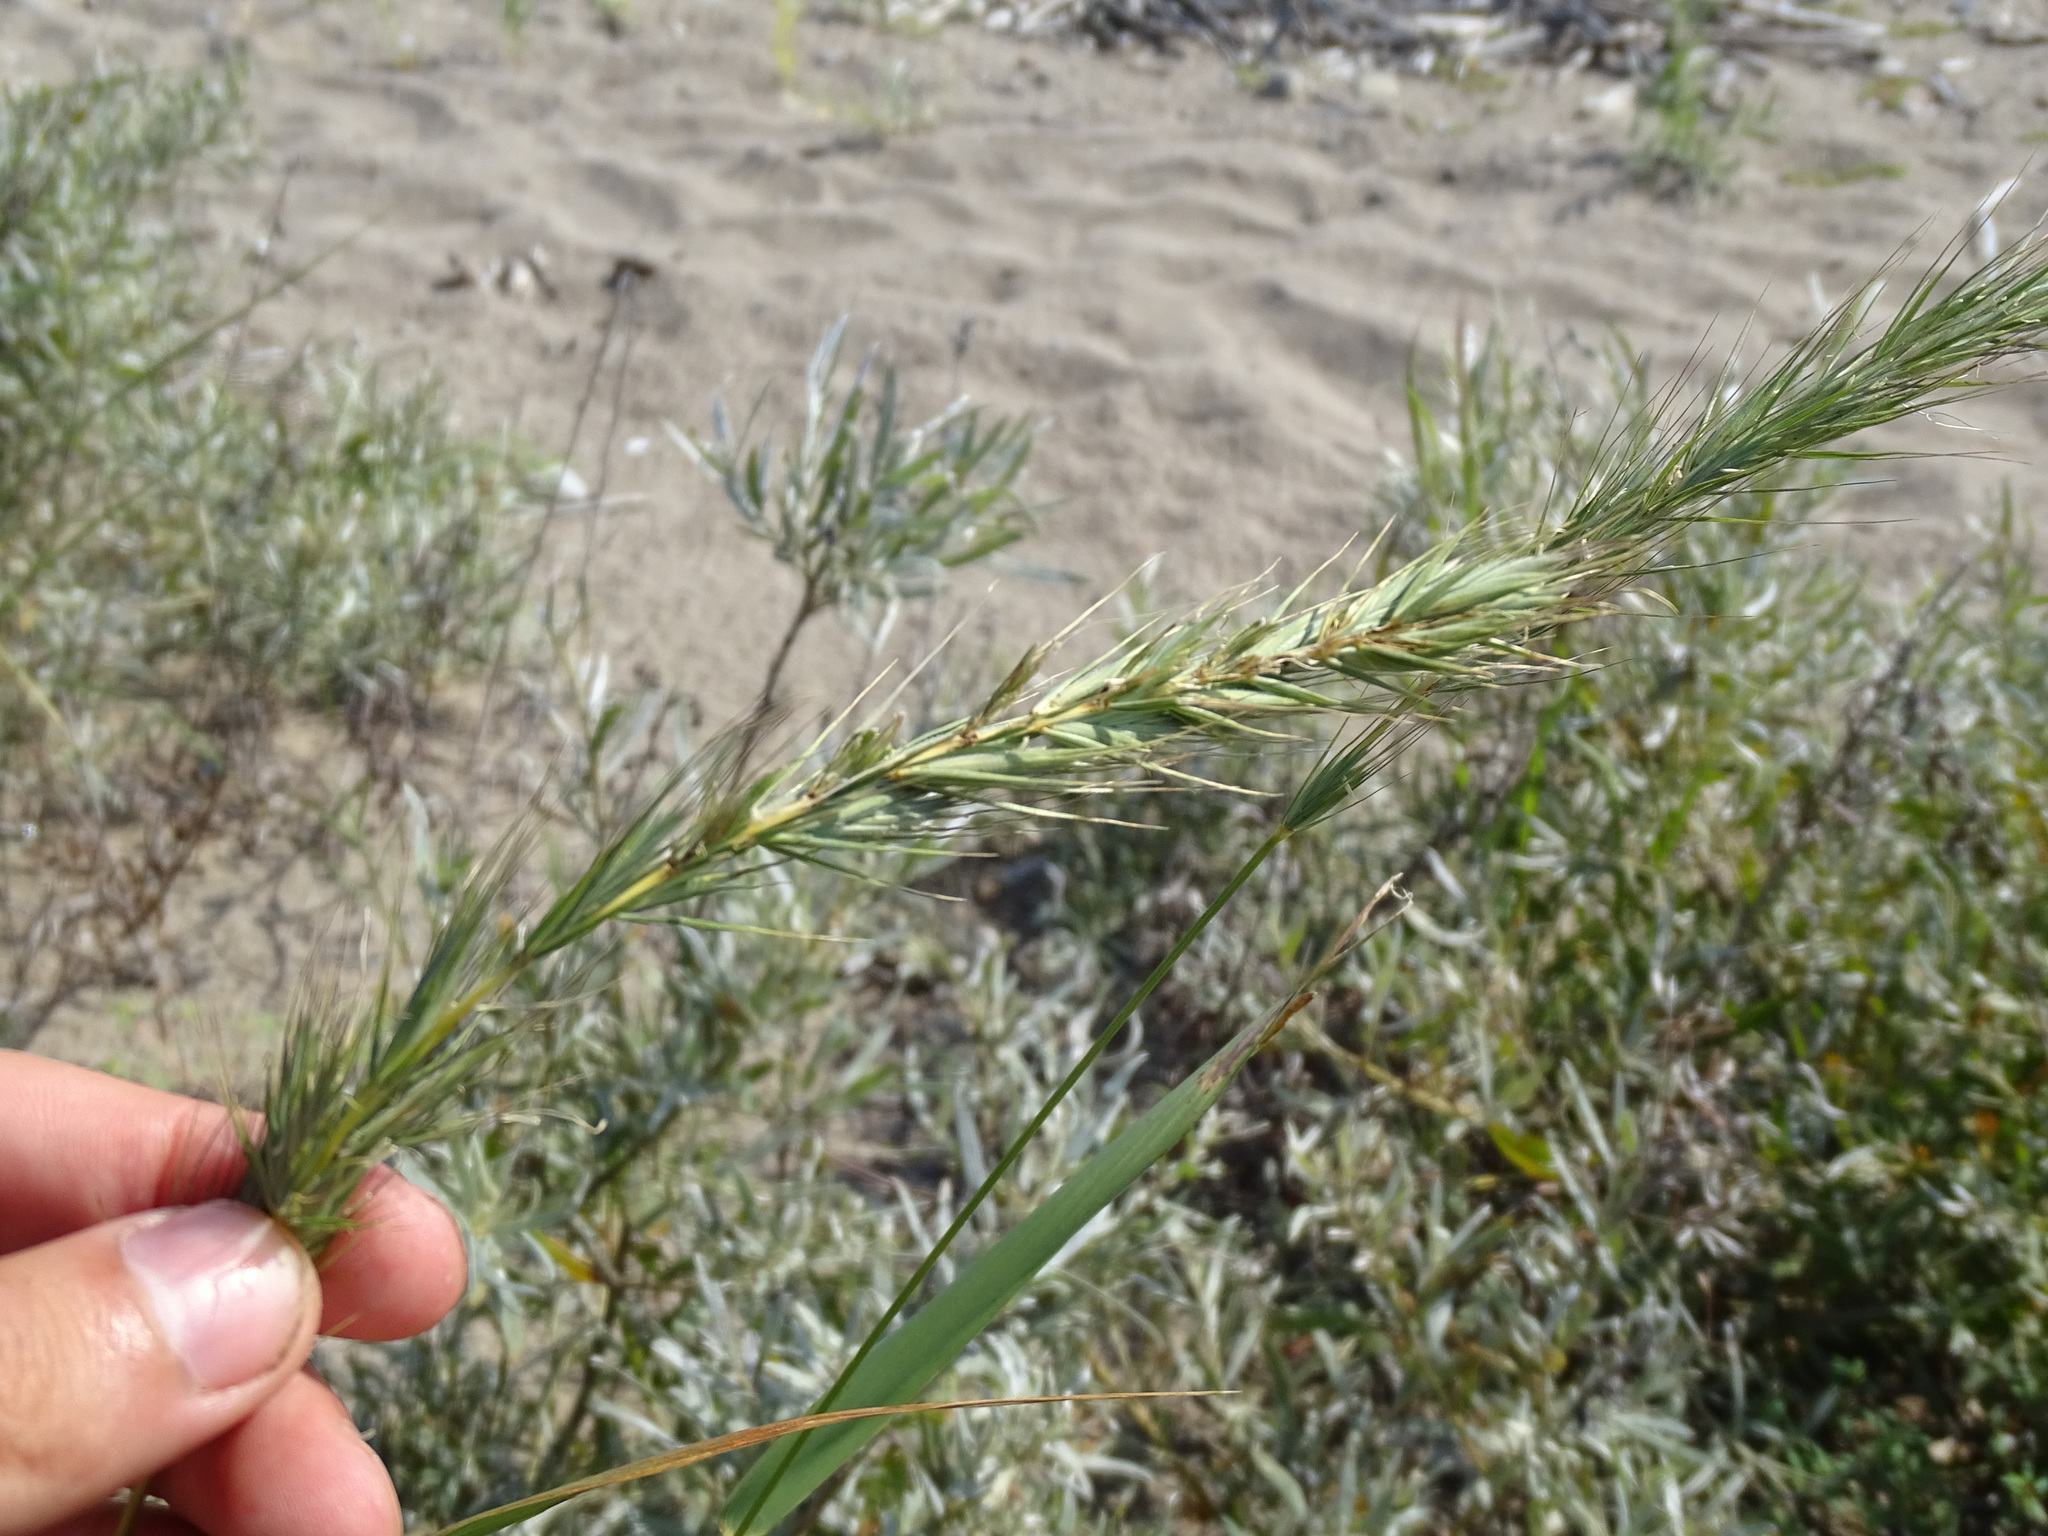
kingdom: Plantae
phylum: Tracheophyta
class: Liliopsida
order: Poales
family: Poaceae
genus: Elymus
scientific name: Elymus canadensis
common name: Canada wild rye
